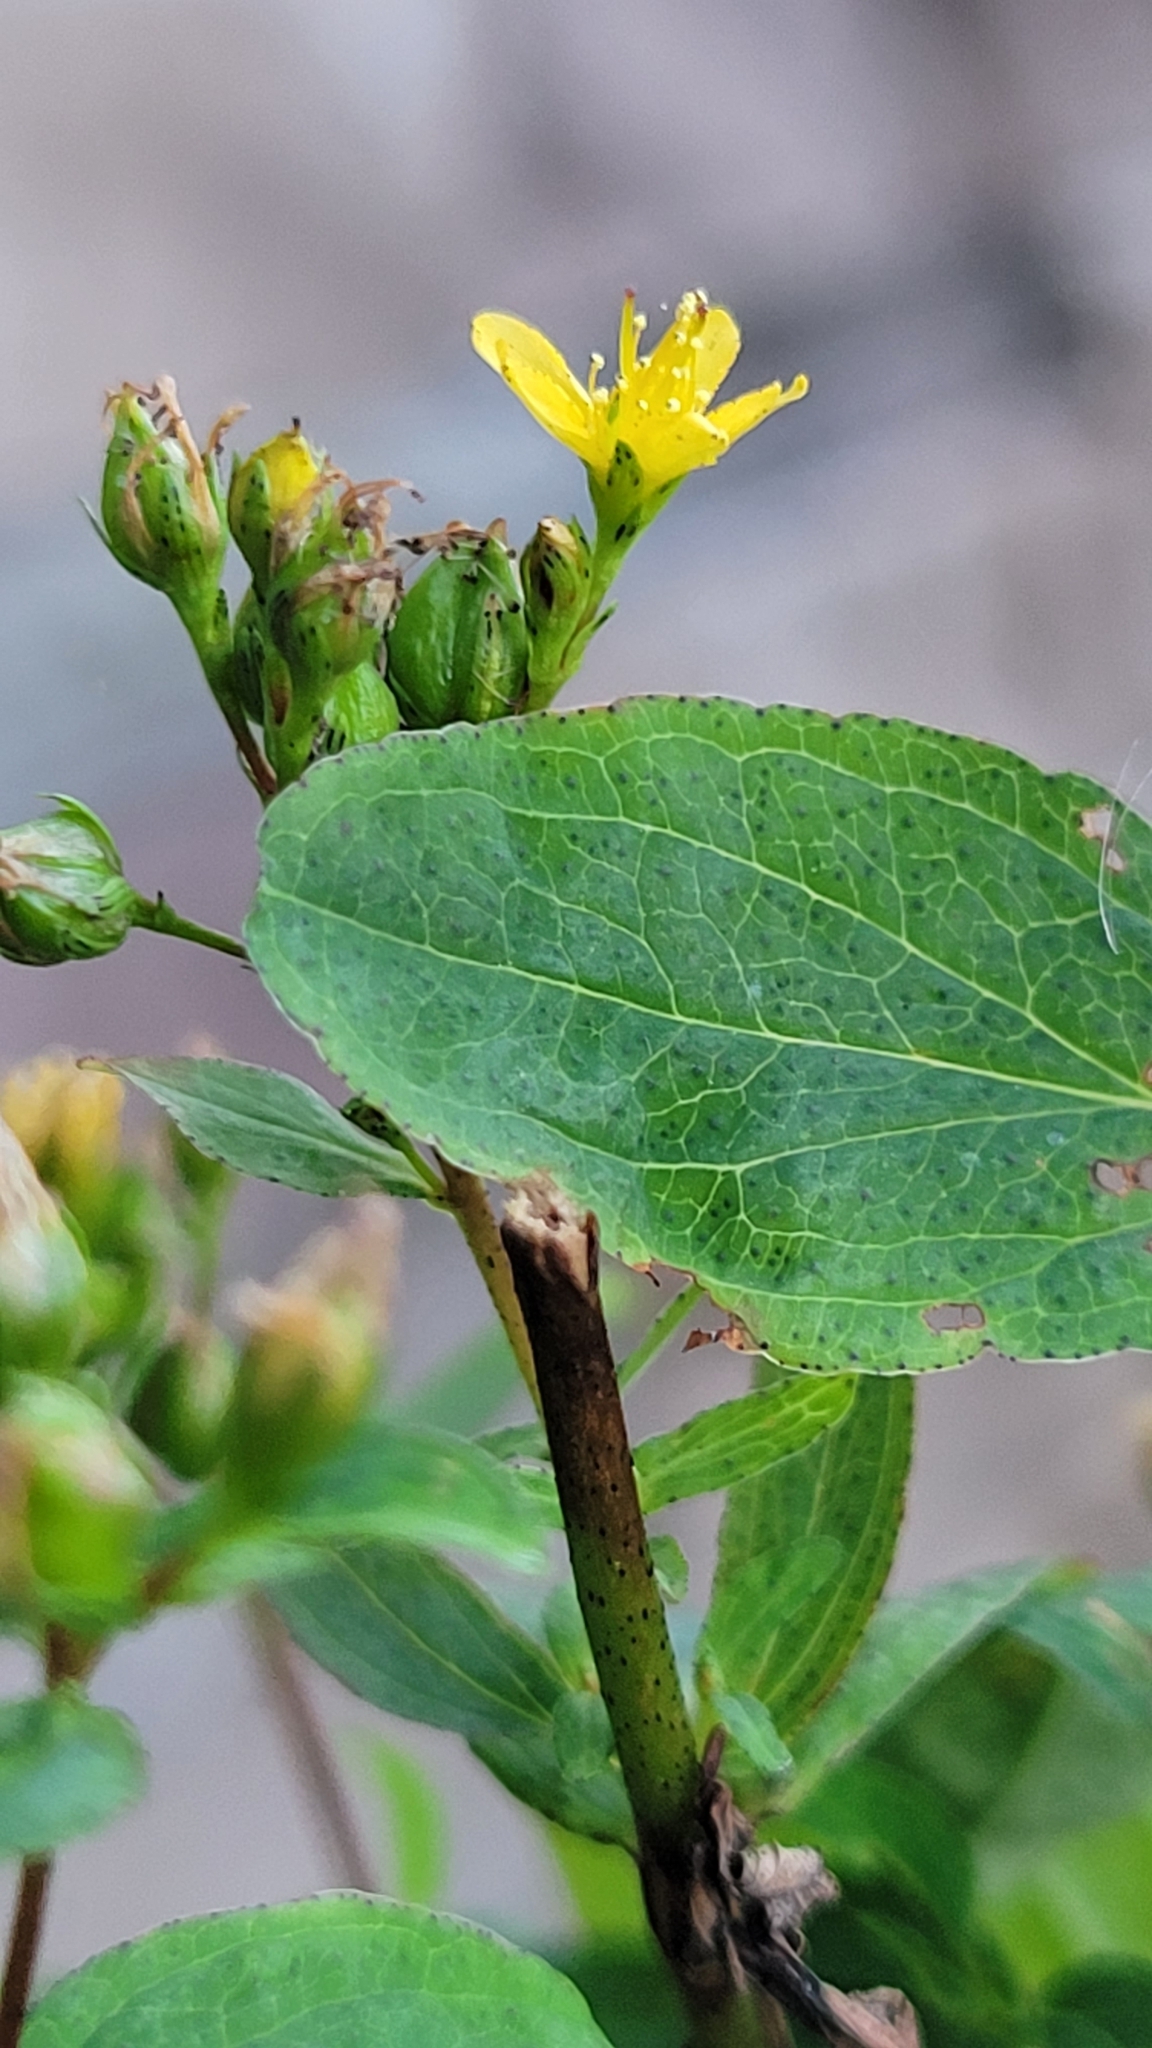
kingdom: Plantae
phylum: Tracheophyta
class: Magnoliopsida
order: Malpighiales
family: Hypericaceae
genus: Hypericum
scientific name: Hypericum punctatum
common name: Spotted st. john's-wort
